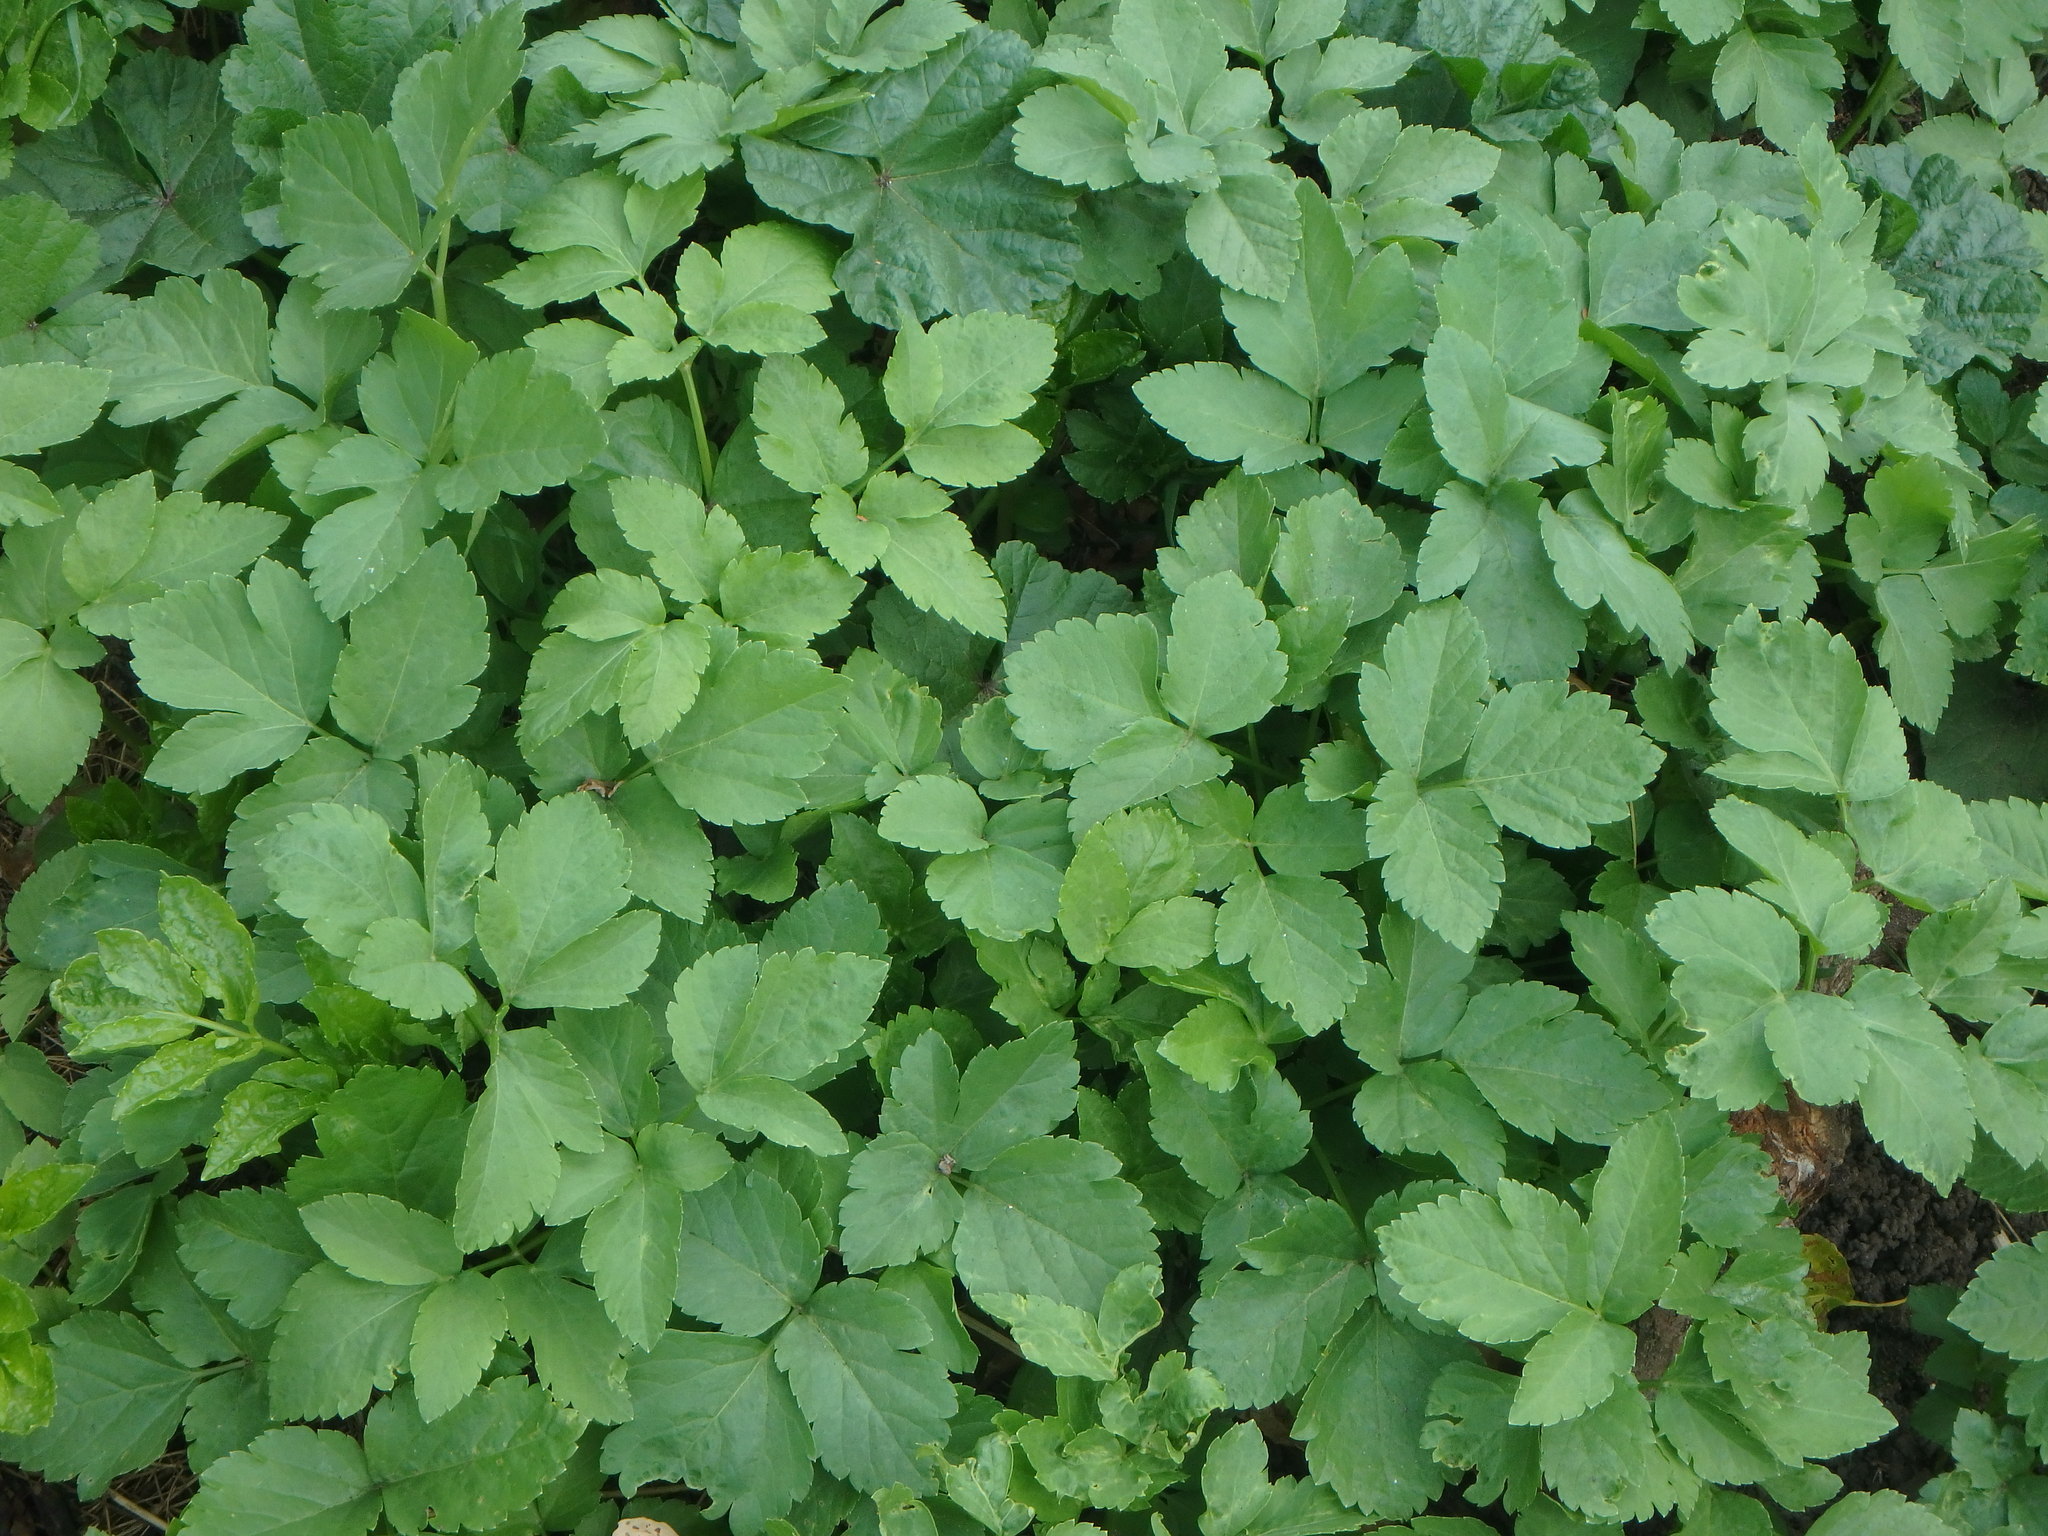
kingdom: Plantae
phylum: Tracheophyta
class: Magnoliopsida
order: Apiales
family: Apiaceae
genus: Aegopodium
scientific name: Aegopodium podagraria
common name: Ground-elder
